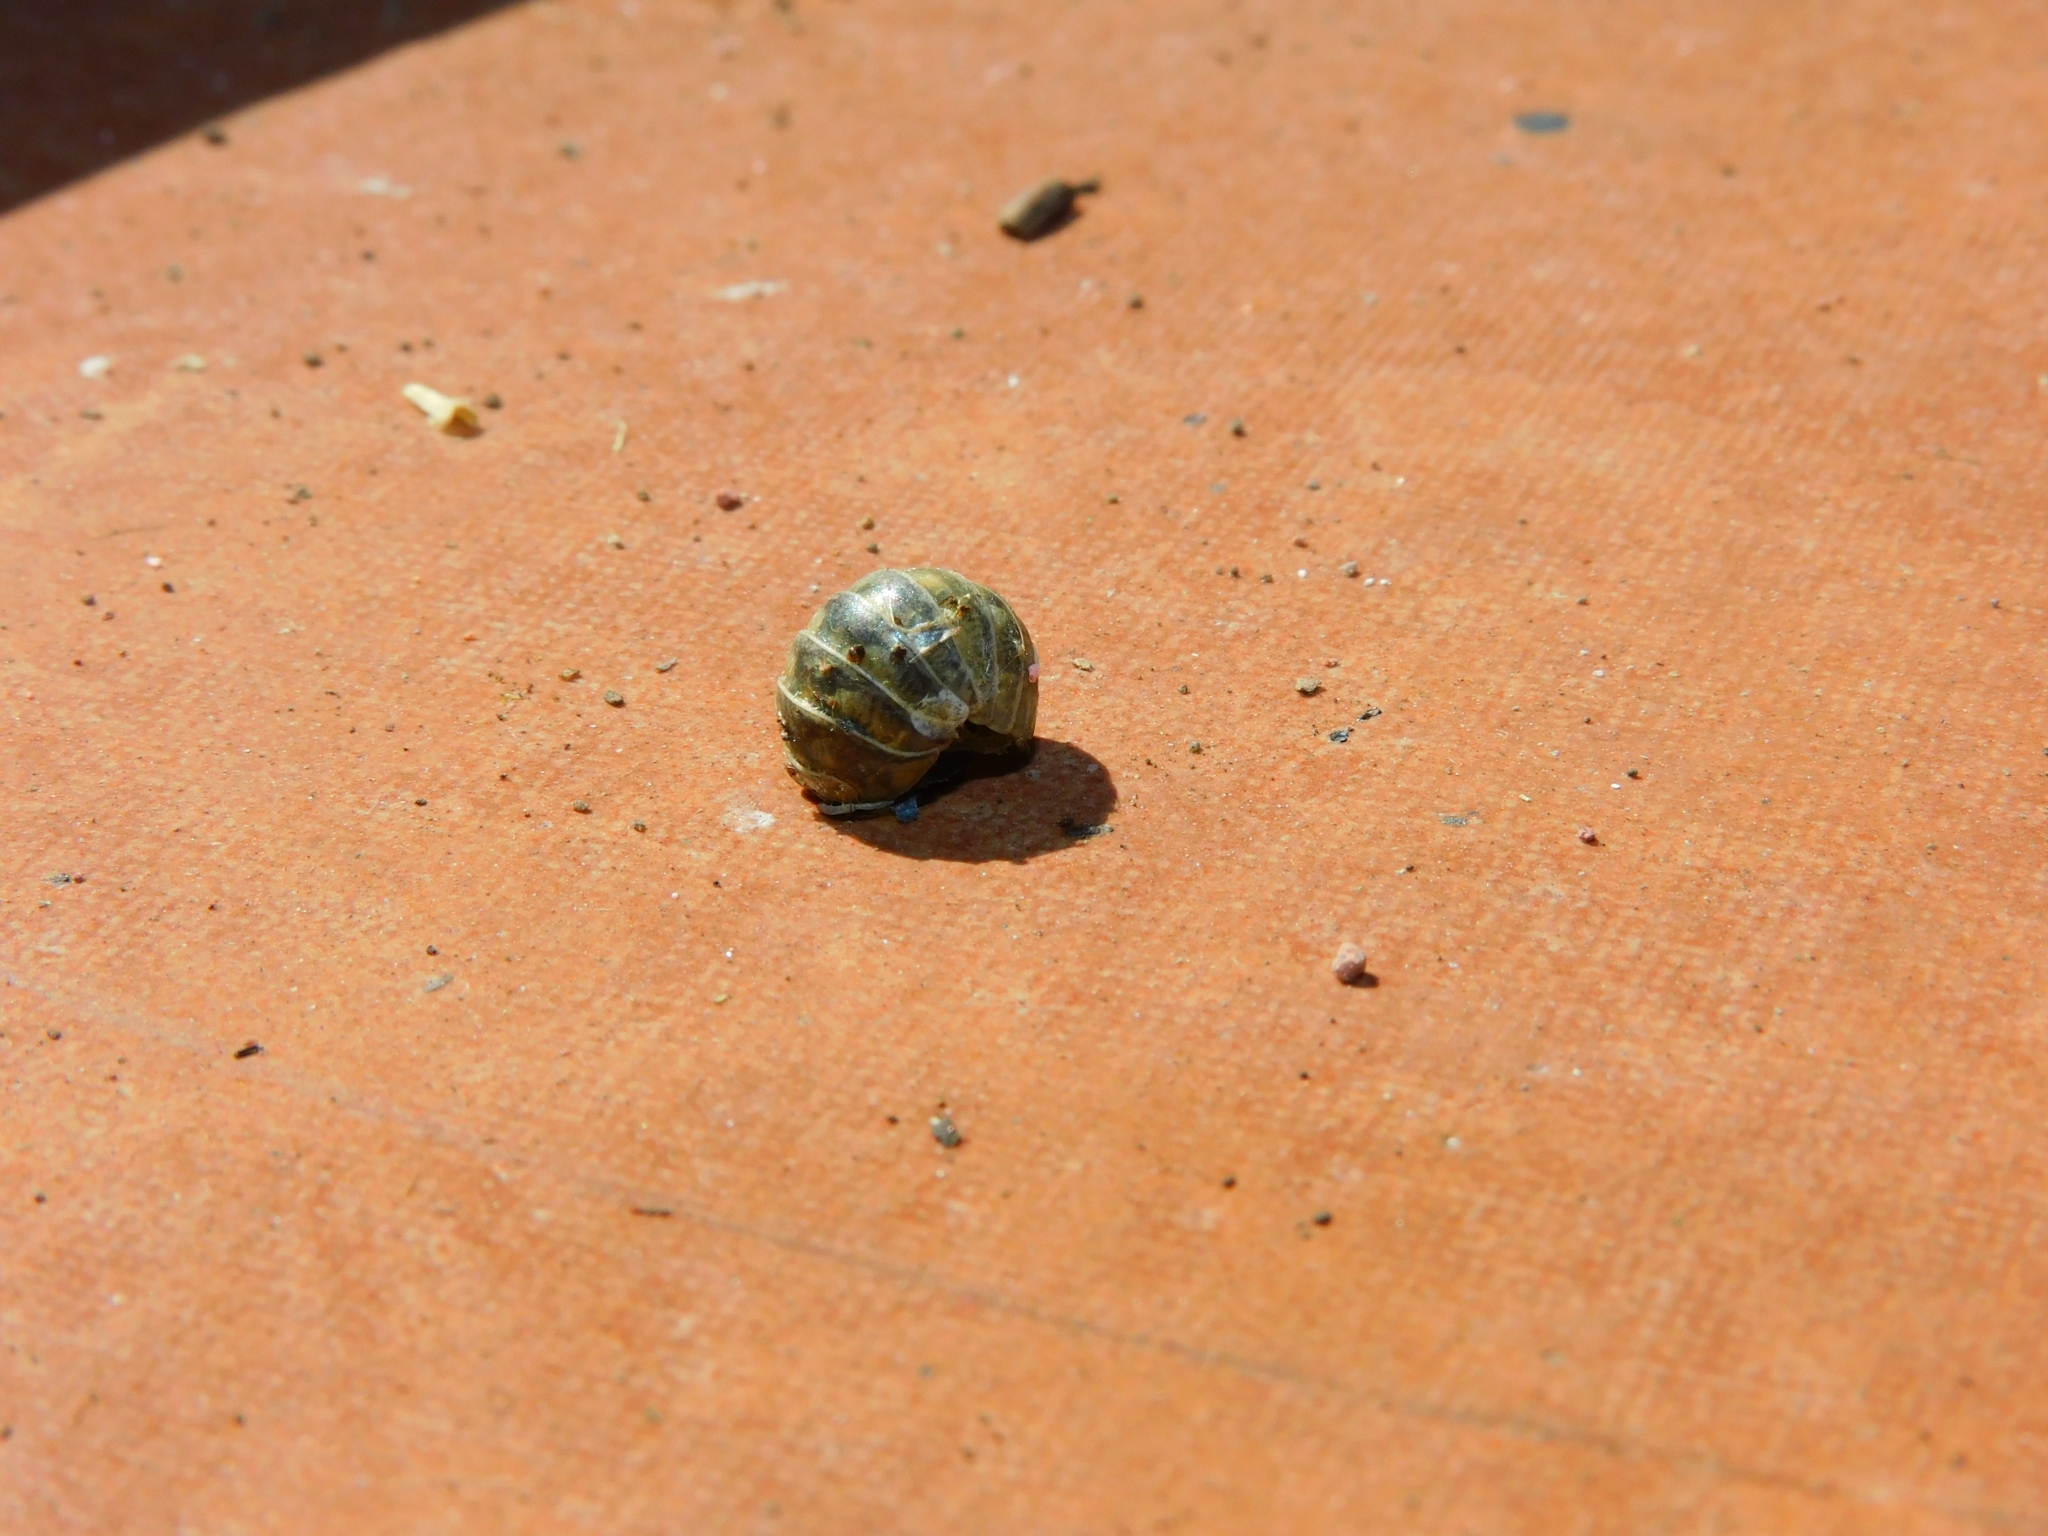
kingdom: Animalia
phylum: Arthropoda
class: Malacostraca
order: Isopoda
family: Armadillidiidae
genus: Armadillidium
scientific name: Armadillidium vulgare
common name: Common pill woodlouse
